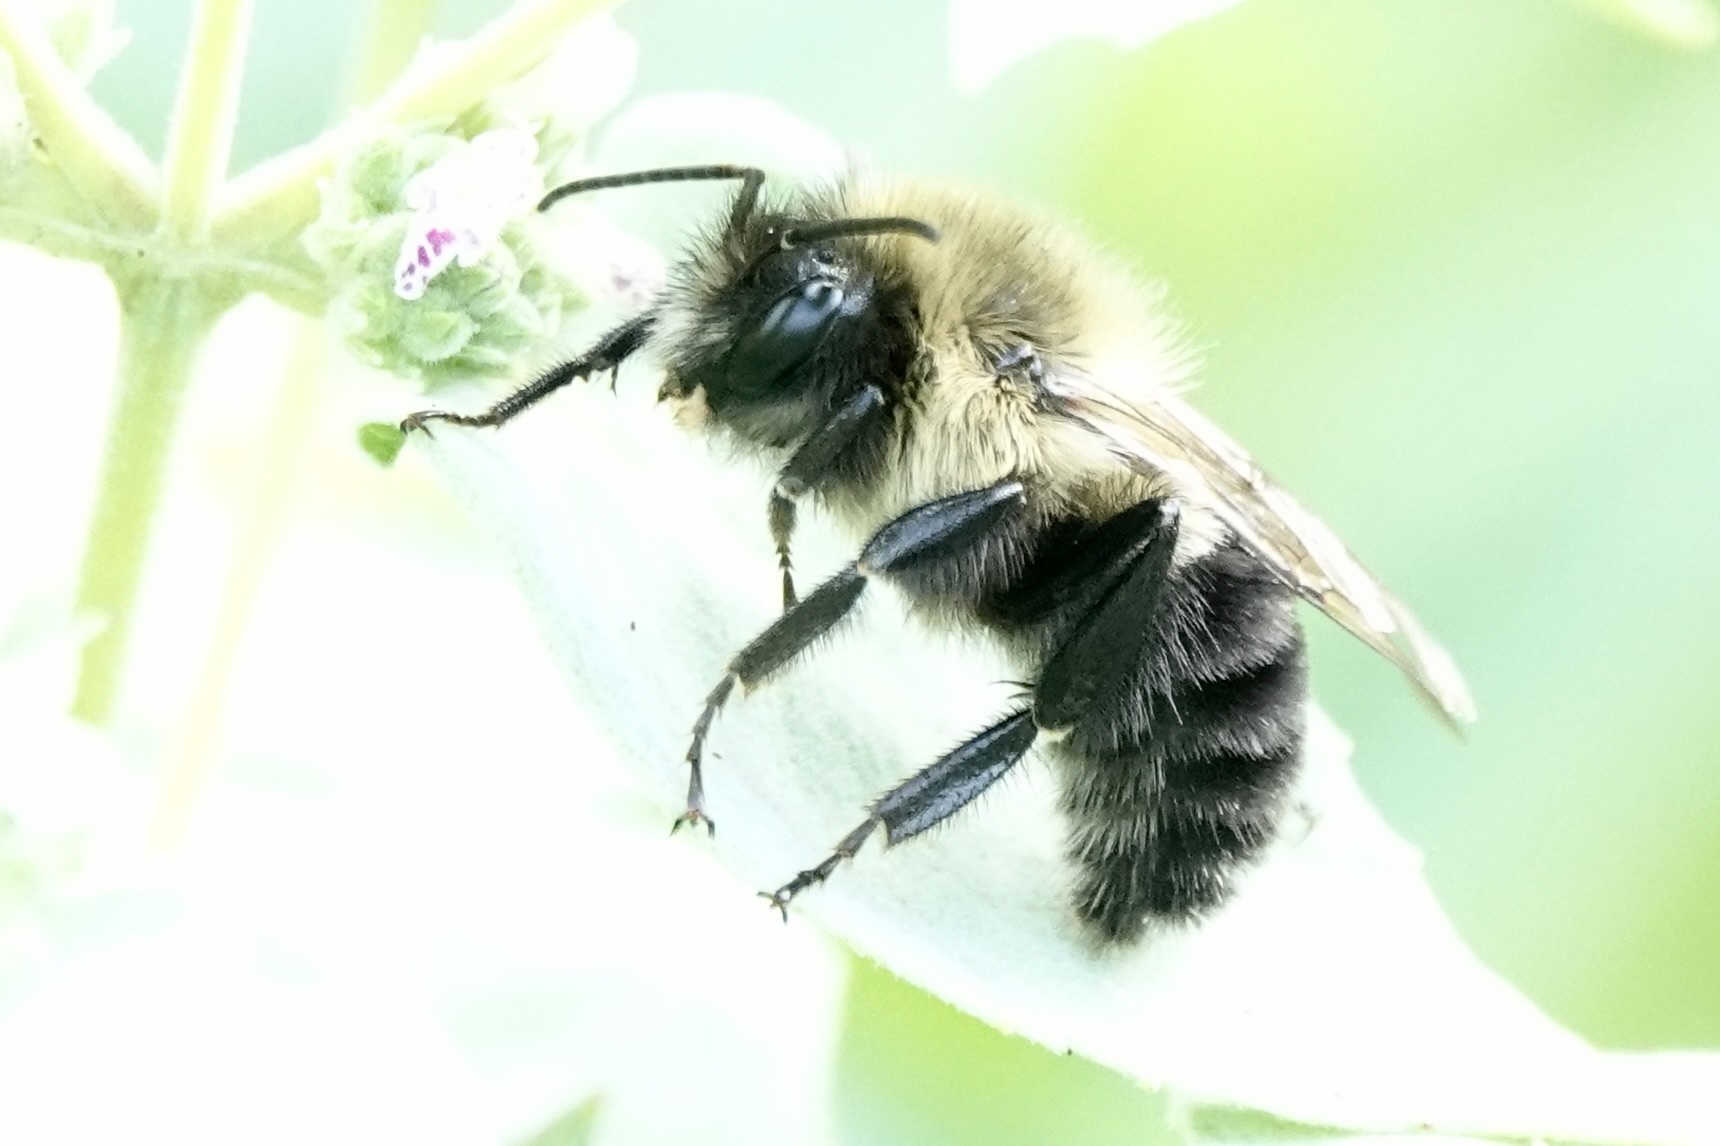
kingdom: Animalia
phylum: Arthropoda
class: Insecta
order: Hymenoptera
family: Apidae
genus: Bombus
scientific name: Bombus impatiens
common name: Common eastern bumble bee
